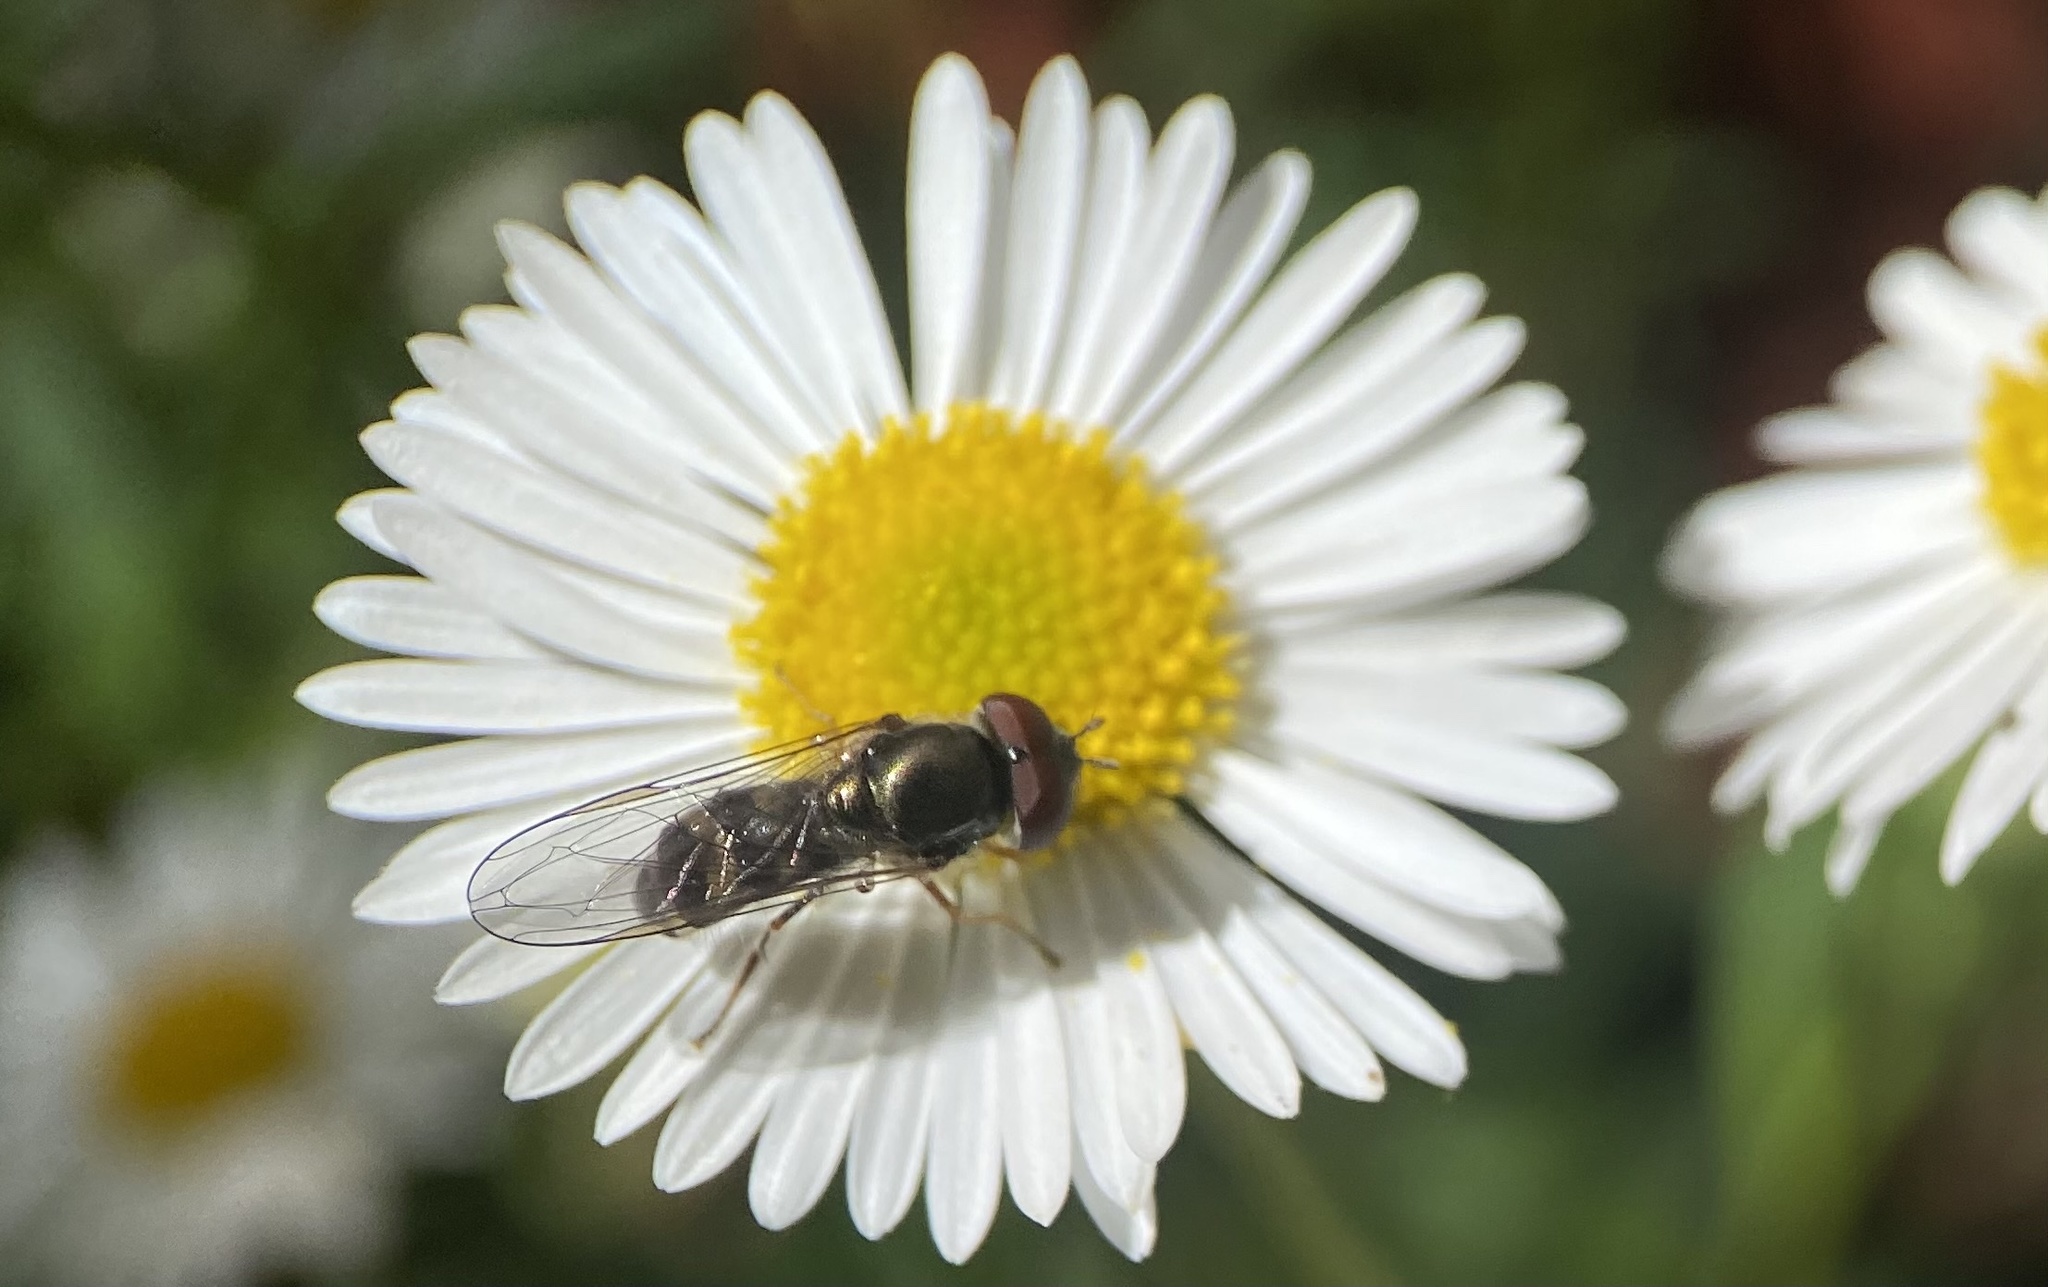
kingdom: Animalia
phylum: Arthropoda
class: Insecta
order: Diptera
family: Syrphidae
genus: Platycheirus
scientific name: Platycheirus trichopus
